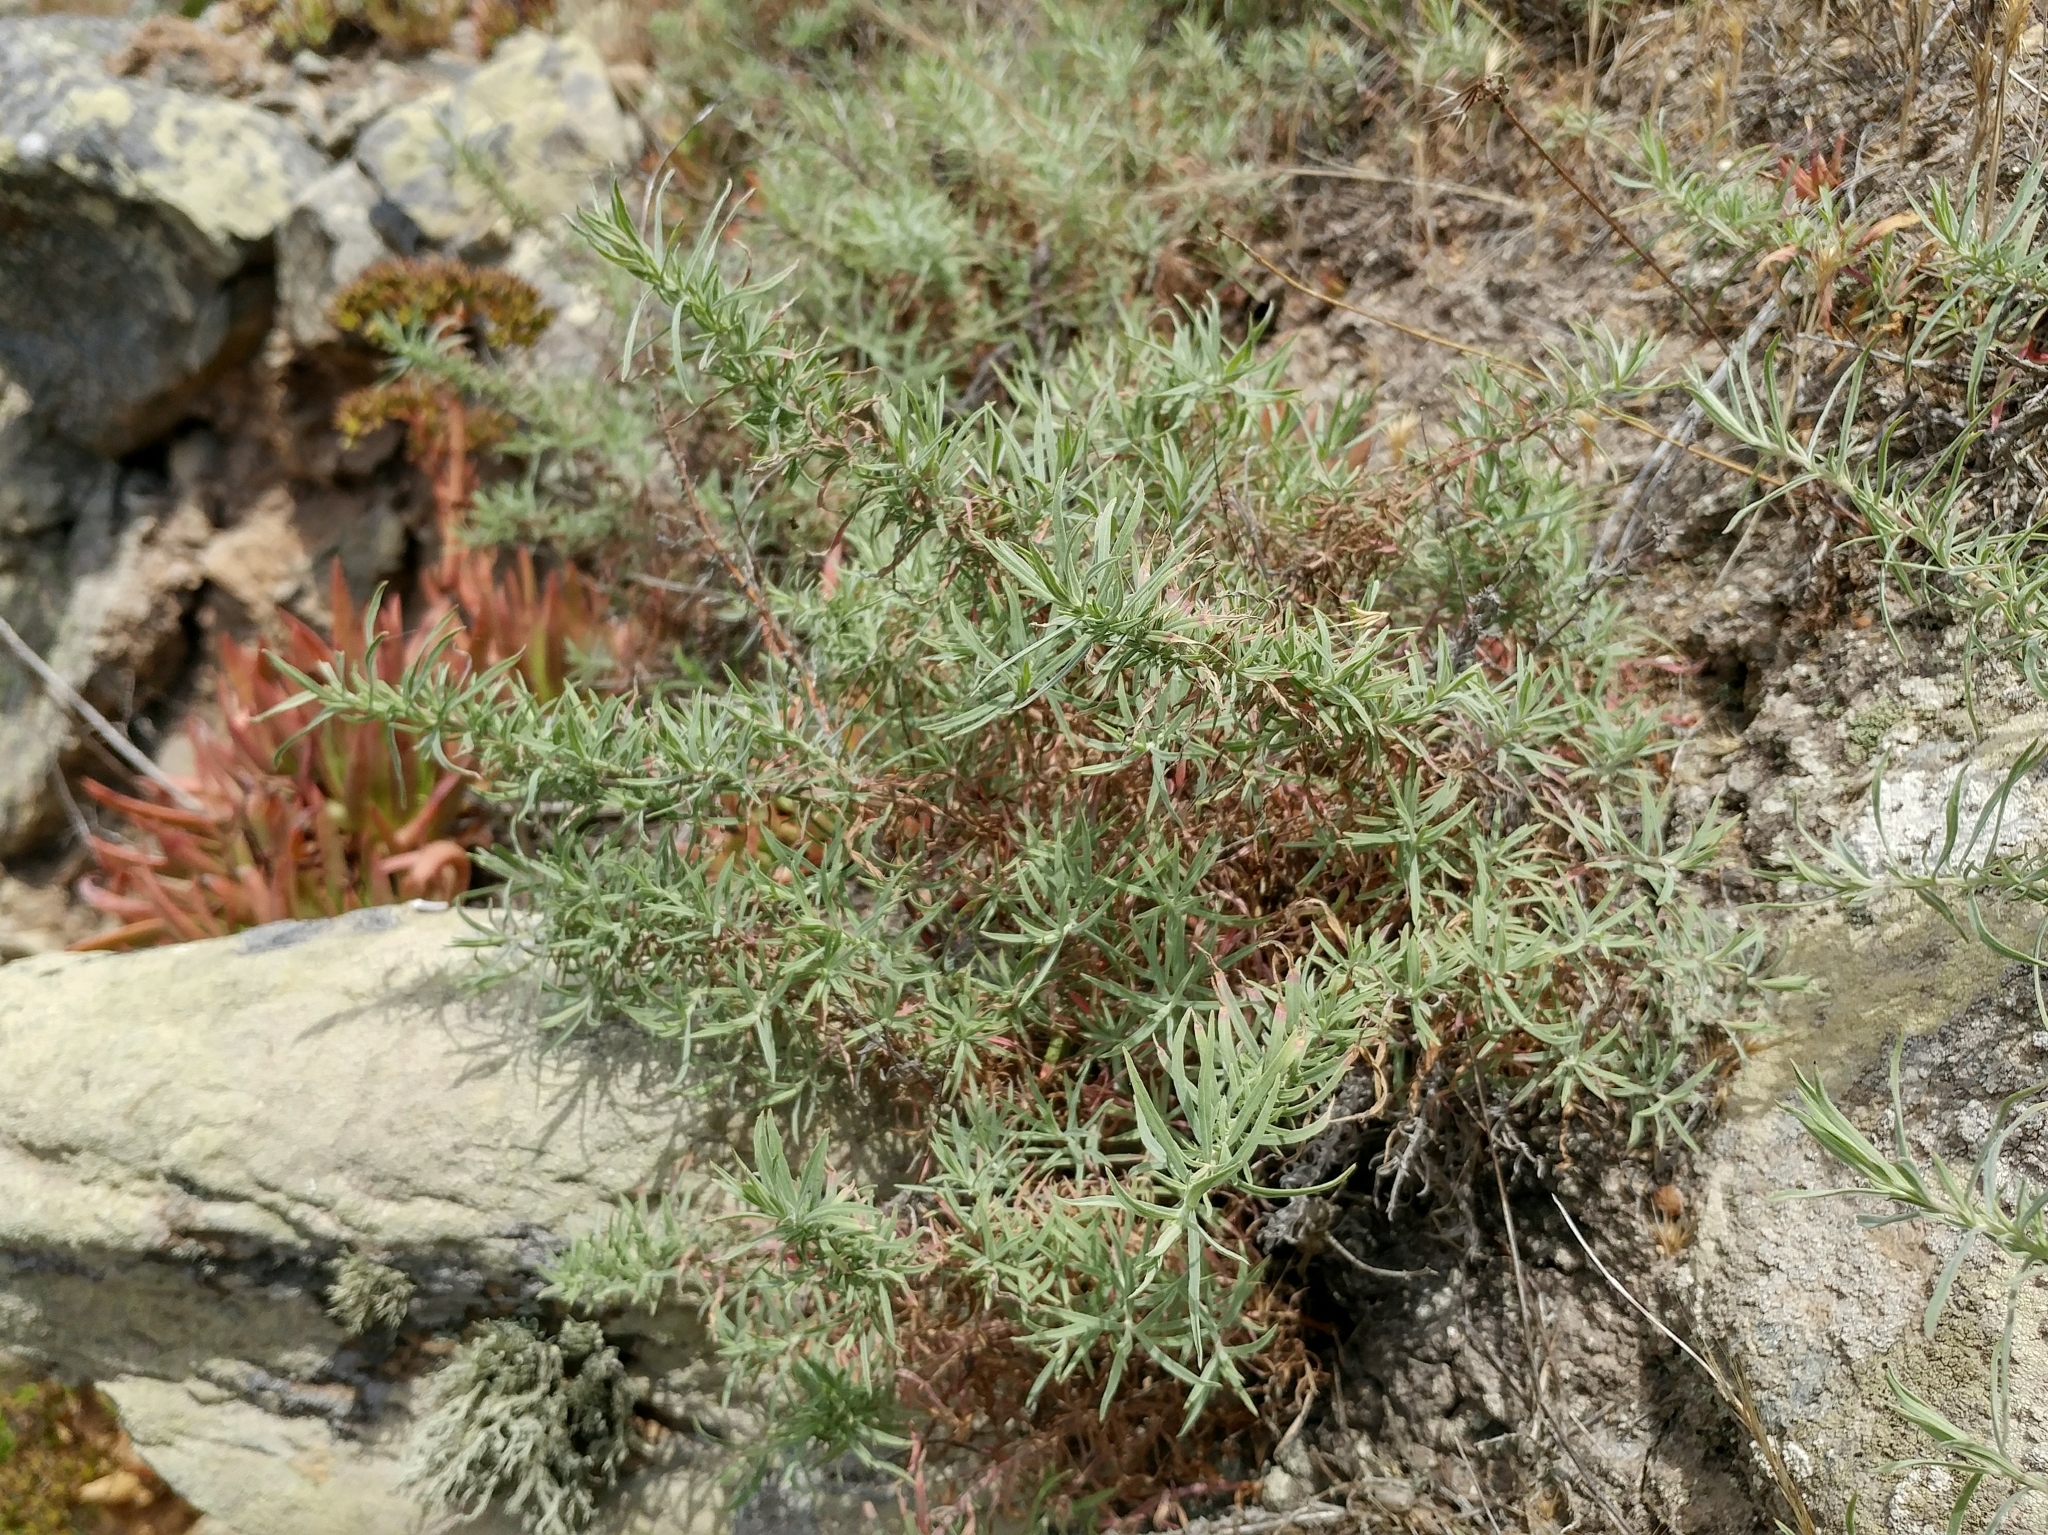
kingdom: Plantae
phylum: Tracheophyta
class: Magnoliopsida
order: Myrtales
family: Onagraceae
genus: Epilobium
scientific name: Epilobium canum
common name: California-fuchsia
